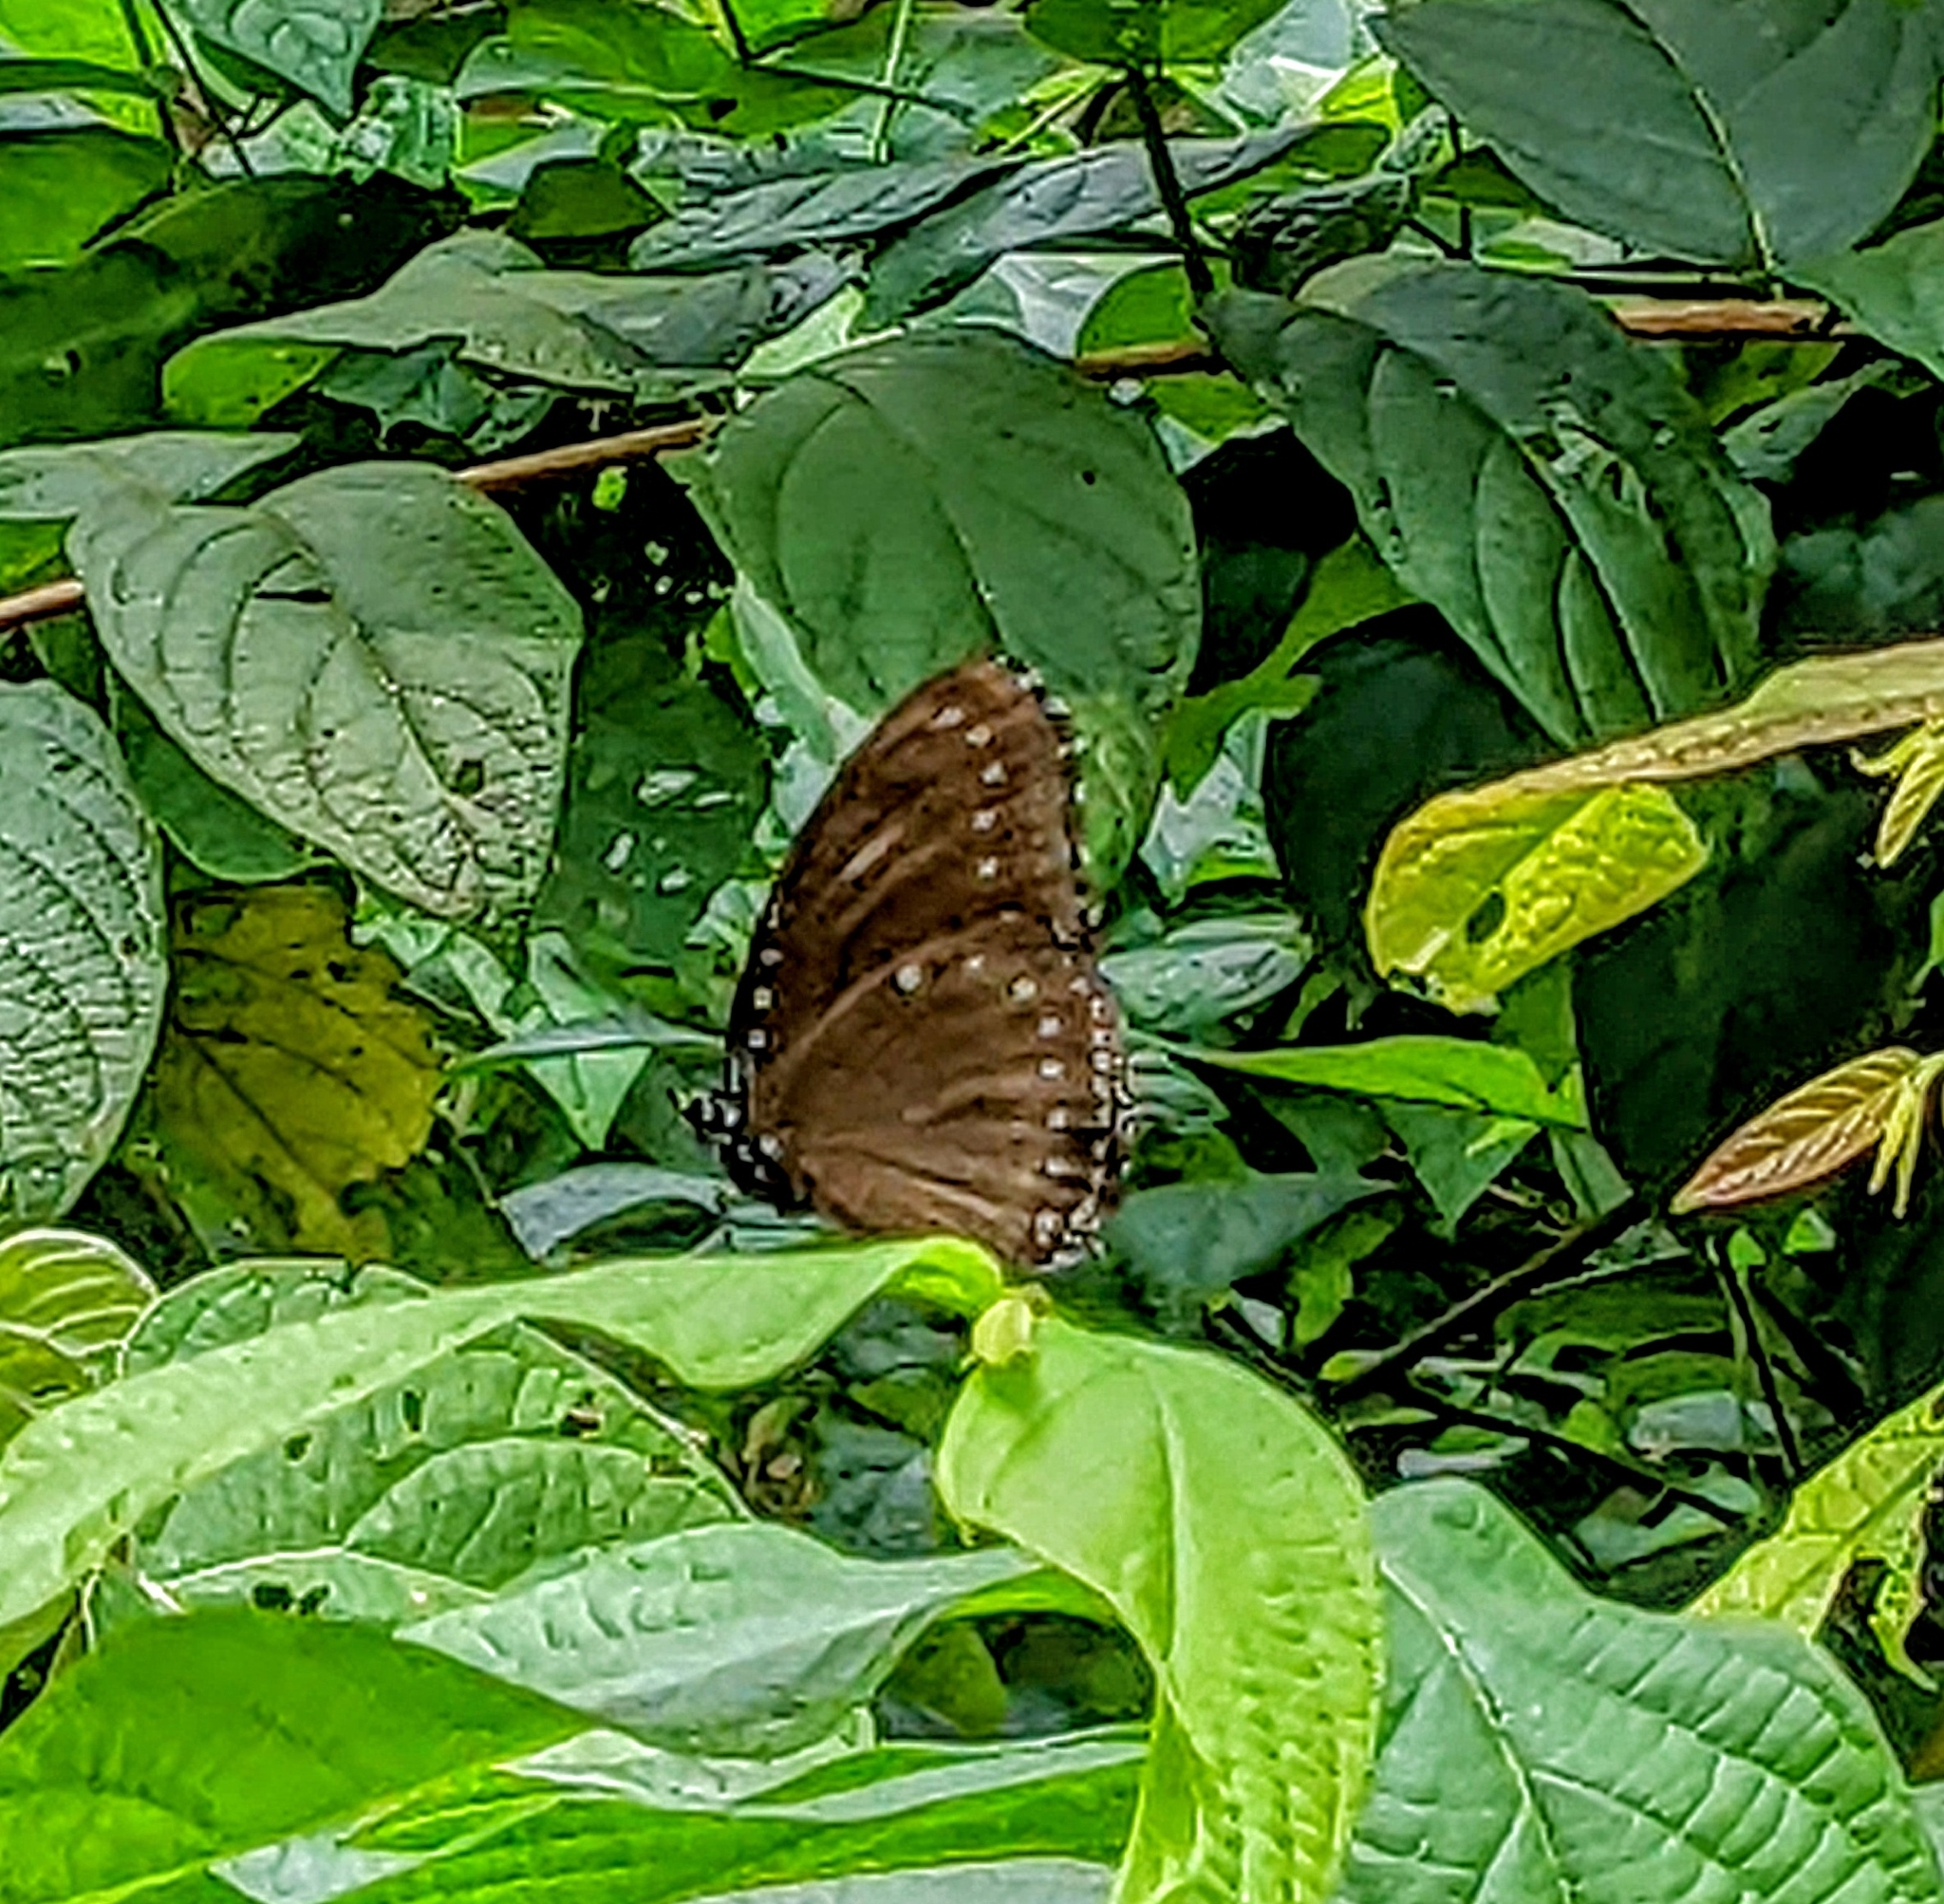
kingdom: Animalia
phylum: Arthropoda
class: Insecta
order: Lepidoptera
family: Nymphalidae
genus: Hypolimnas
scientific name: Hypolimnas anomala
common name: Malayan eggfly
